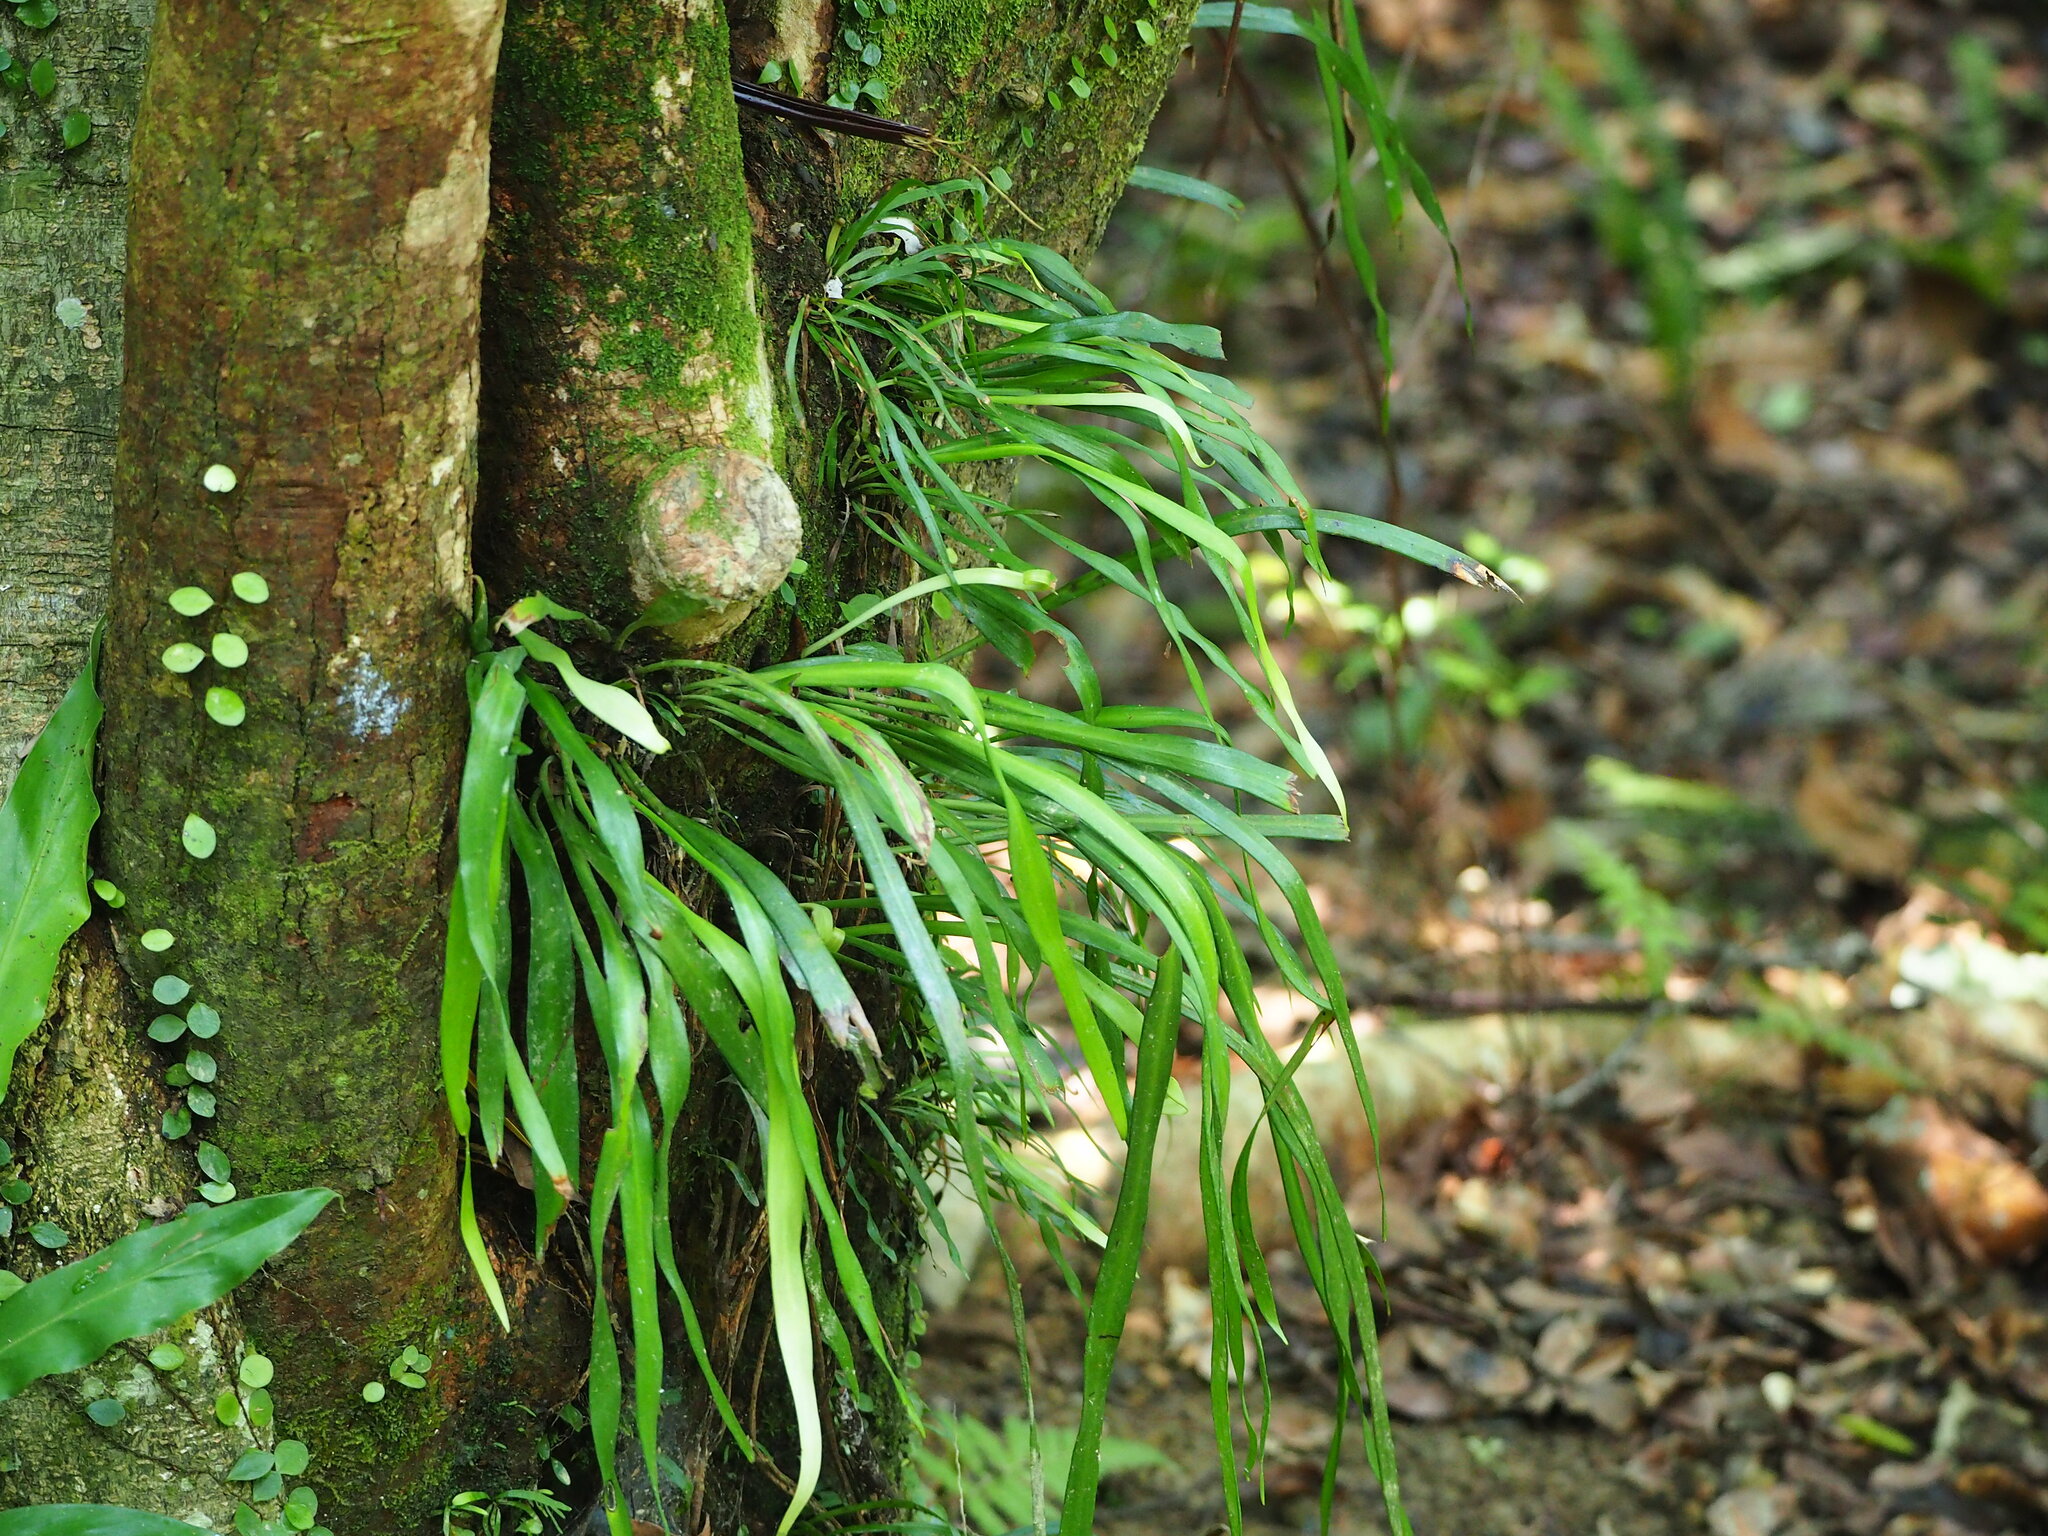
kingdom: Plantae
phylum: Tracheophyta
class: Polypodiopsida
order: Polypodiales
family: Pteridaceae
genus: Haplopteris
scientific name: Haplopteris anguste-elongata
